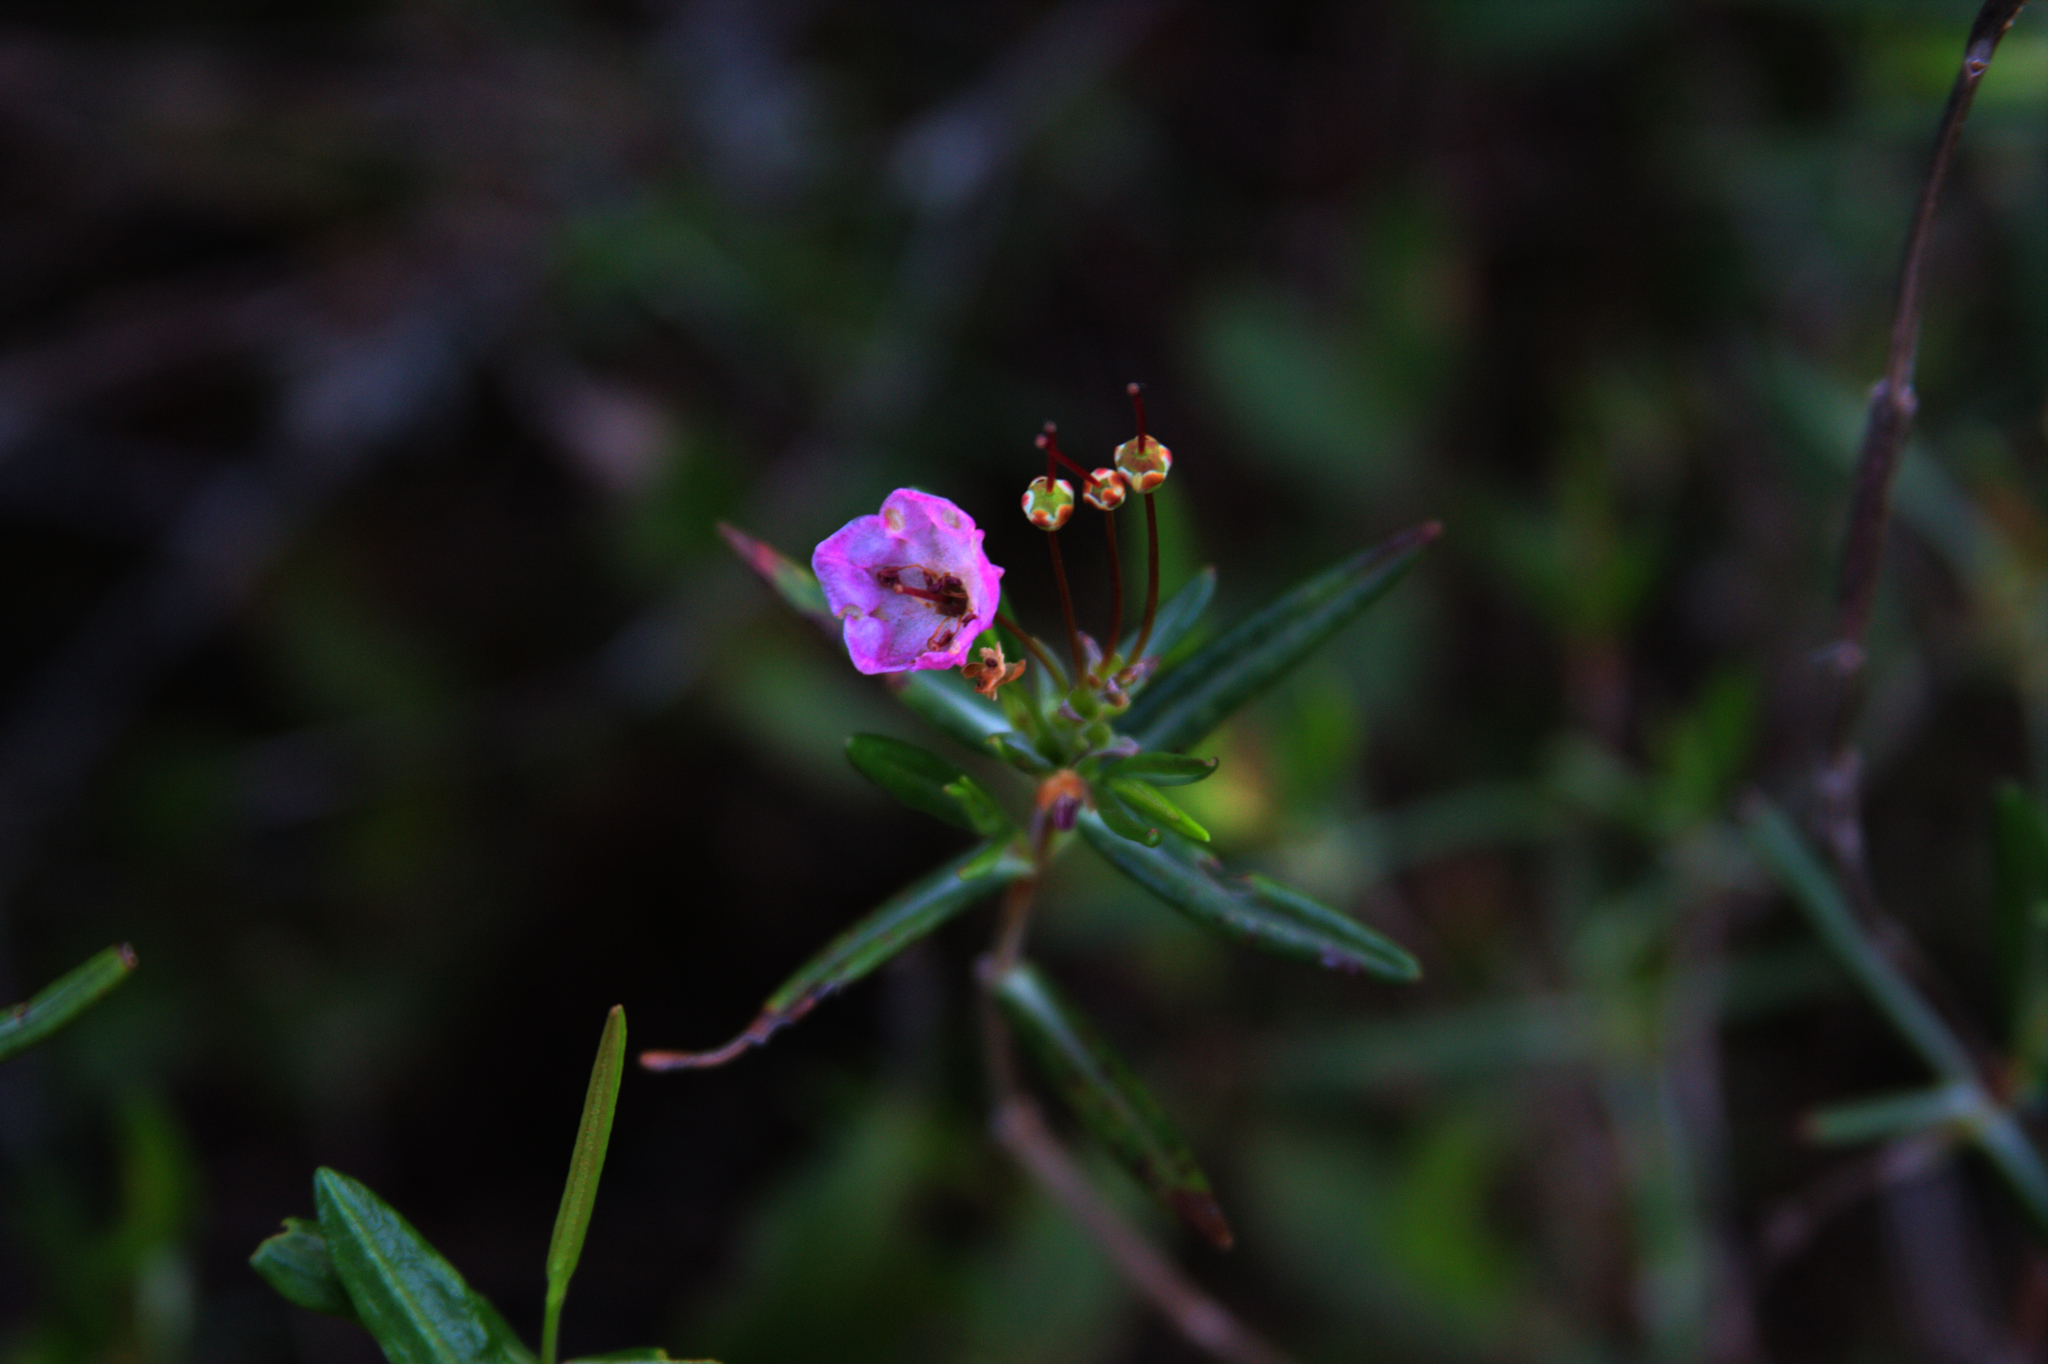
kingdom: Plantae
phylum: Tracheophyta
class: Magnoliopsida
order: Ericales
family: Ericaceae
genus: Kalmia
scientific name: Kalmia polifolia
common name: Bog-laurel
